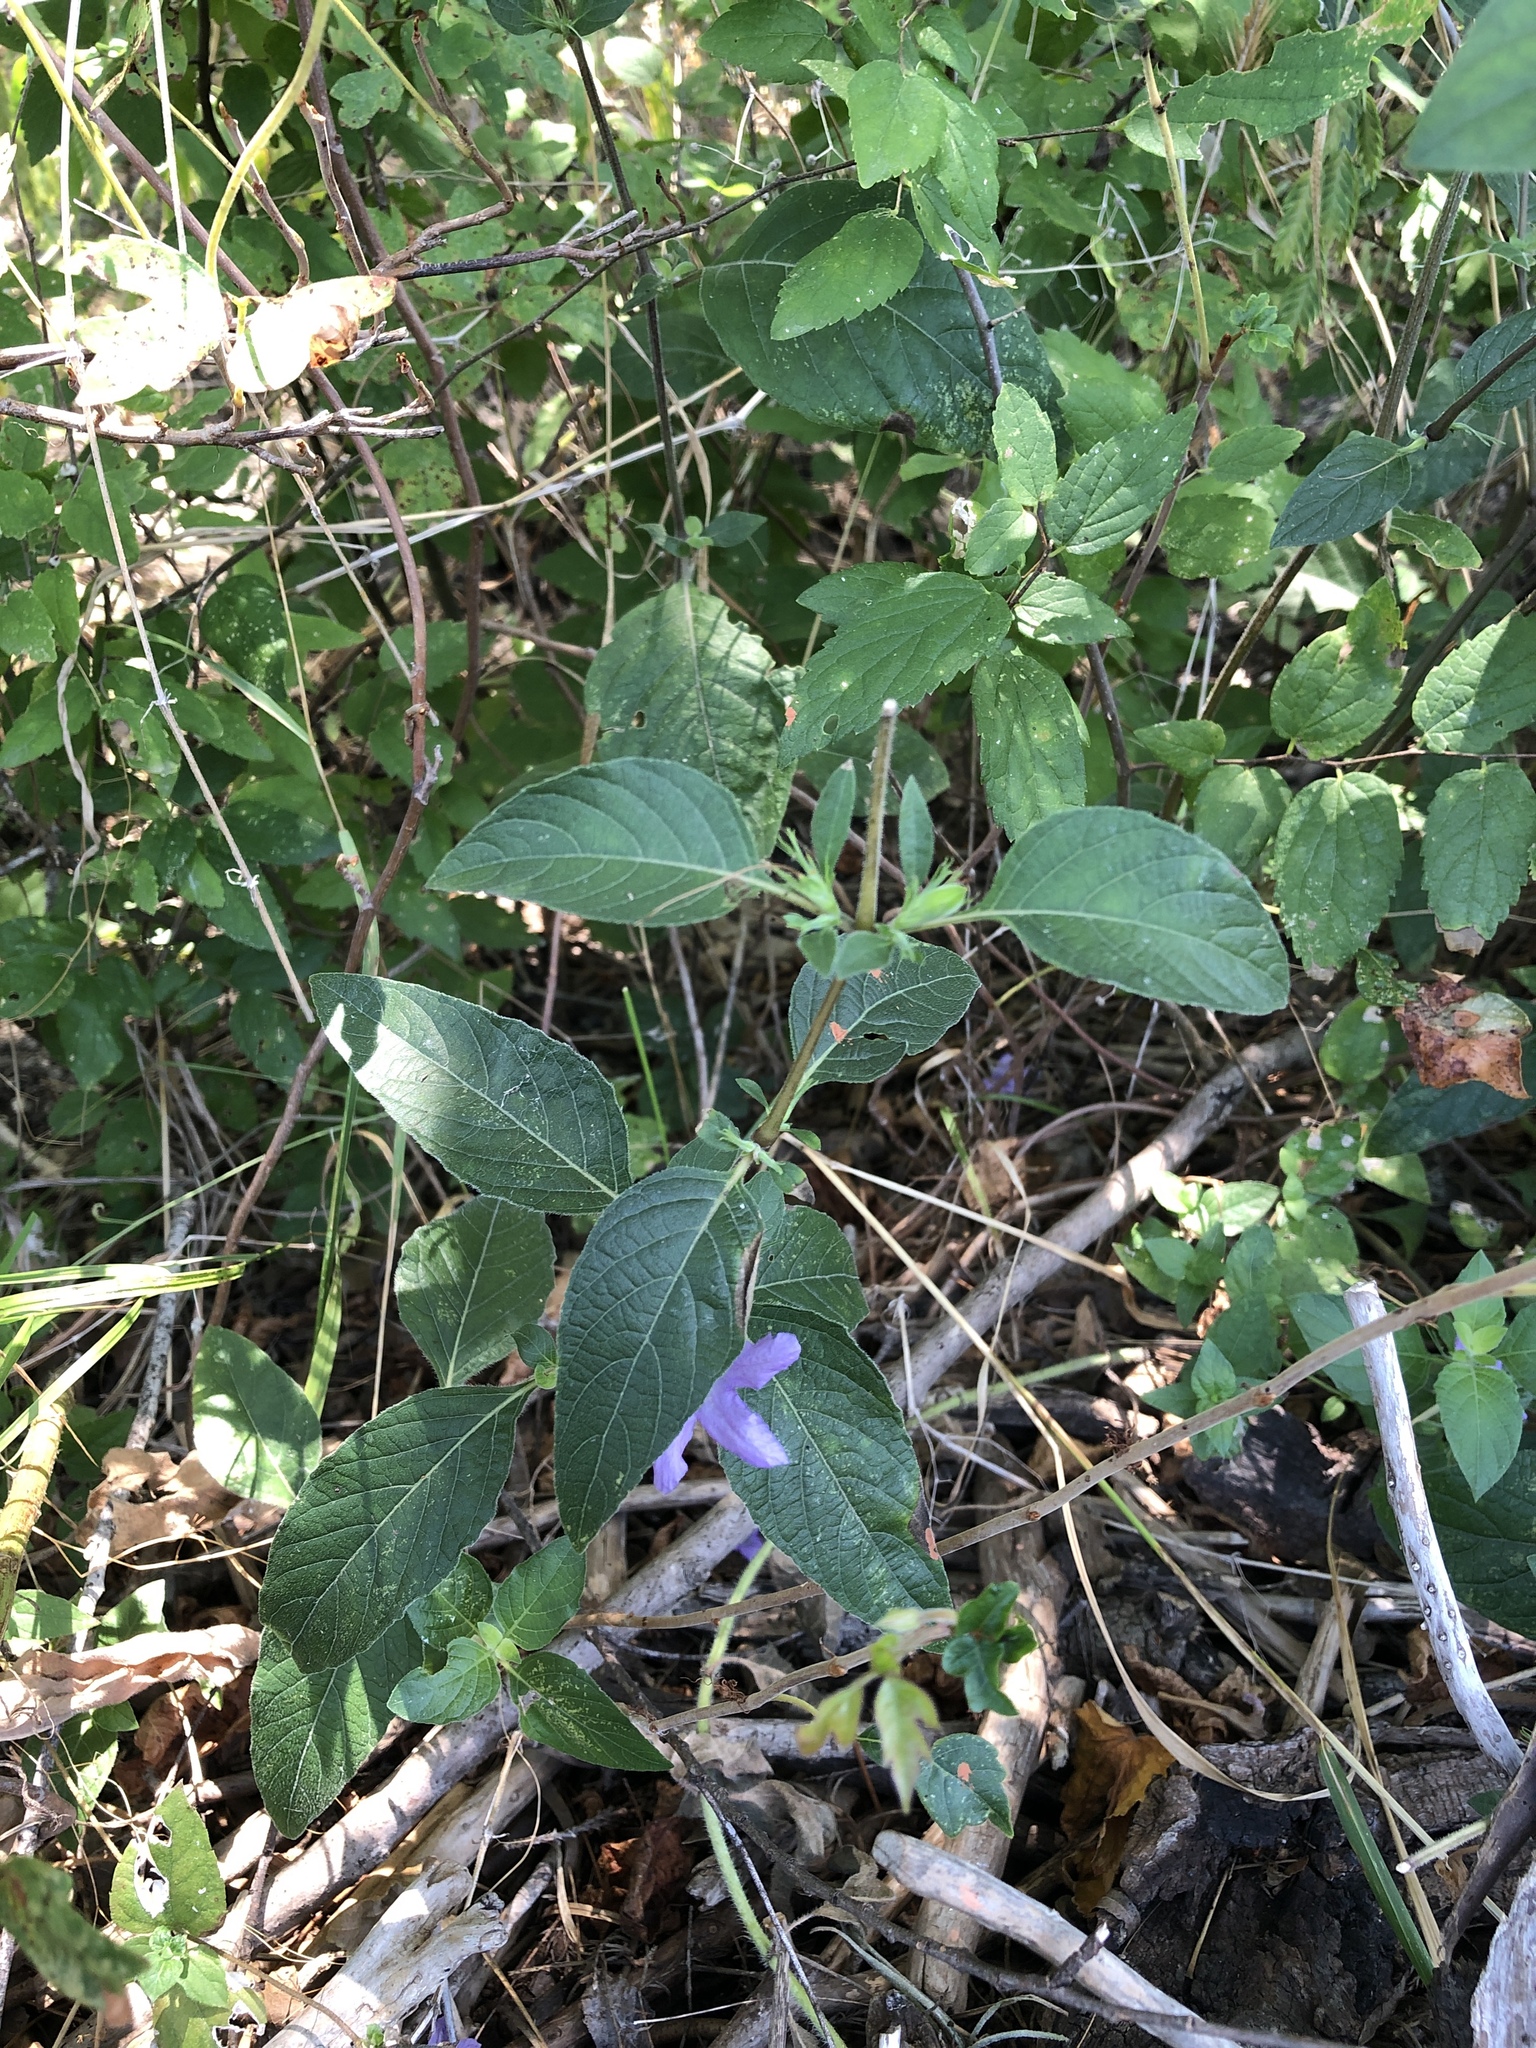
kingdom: Plantae
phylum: Tracheophyta
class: Magnoliopsida
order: Lamiales
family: Acanthaceae
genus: Ruellia
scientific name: Ruellia drummondiana
